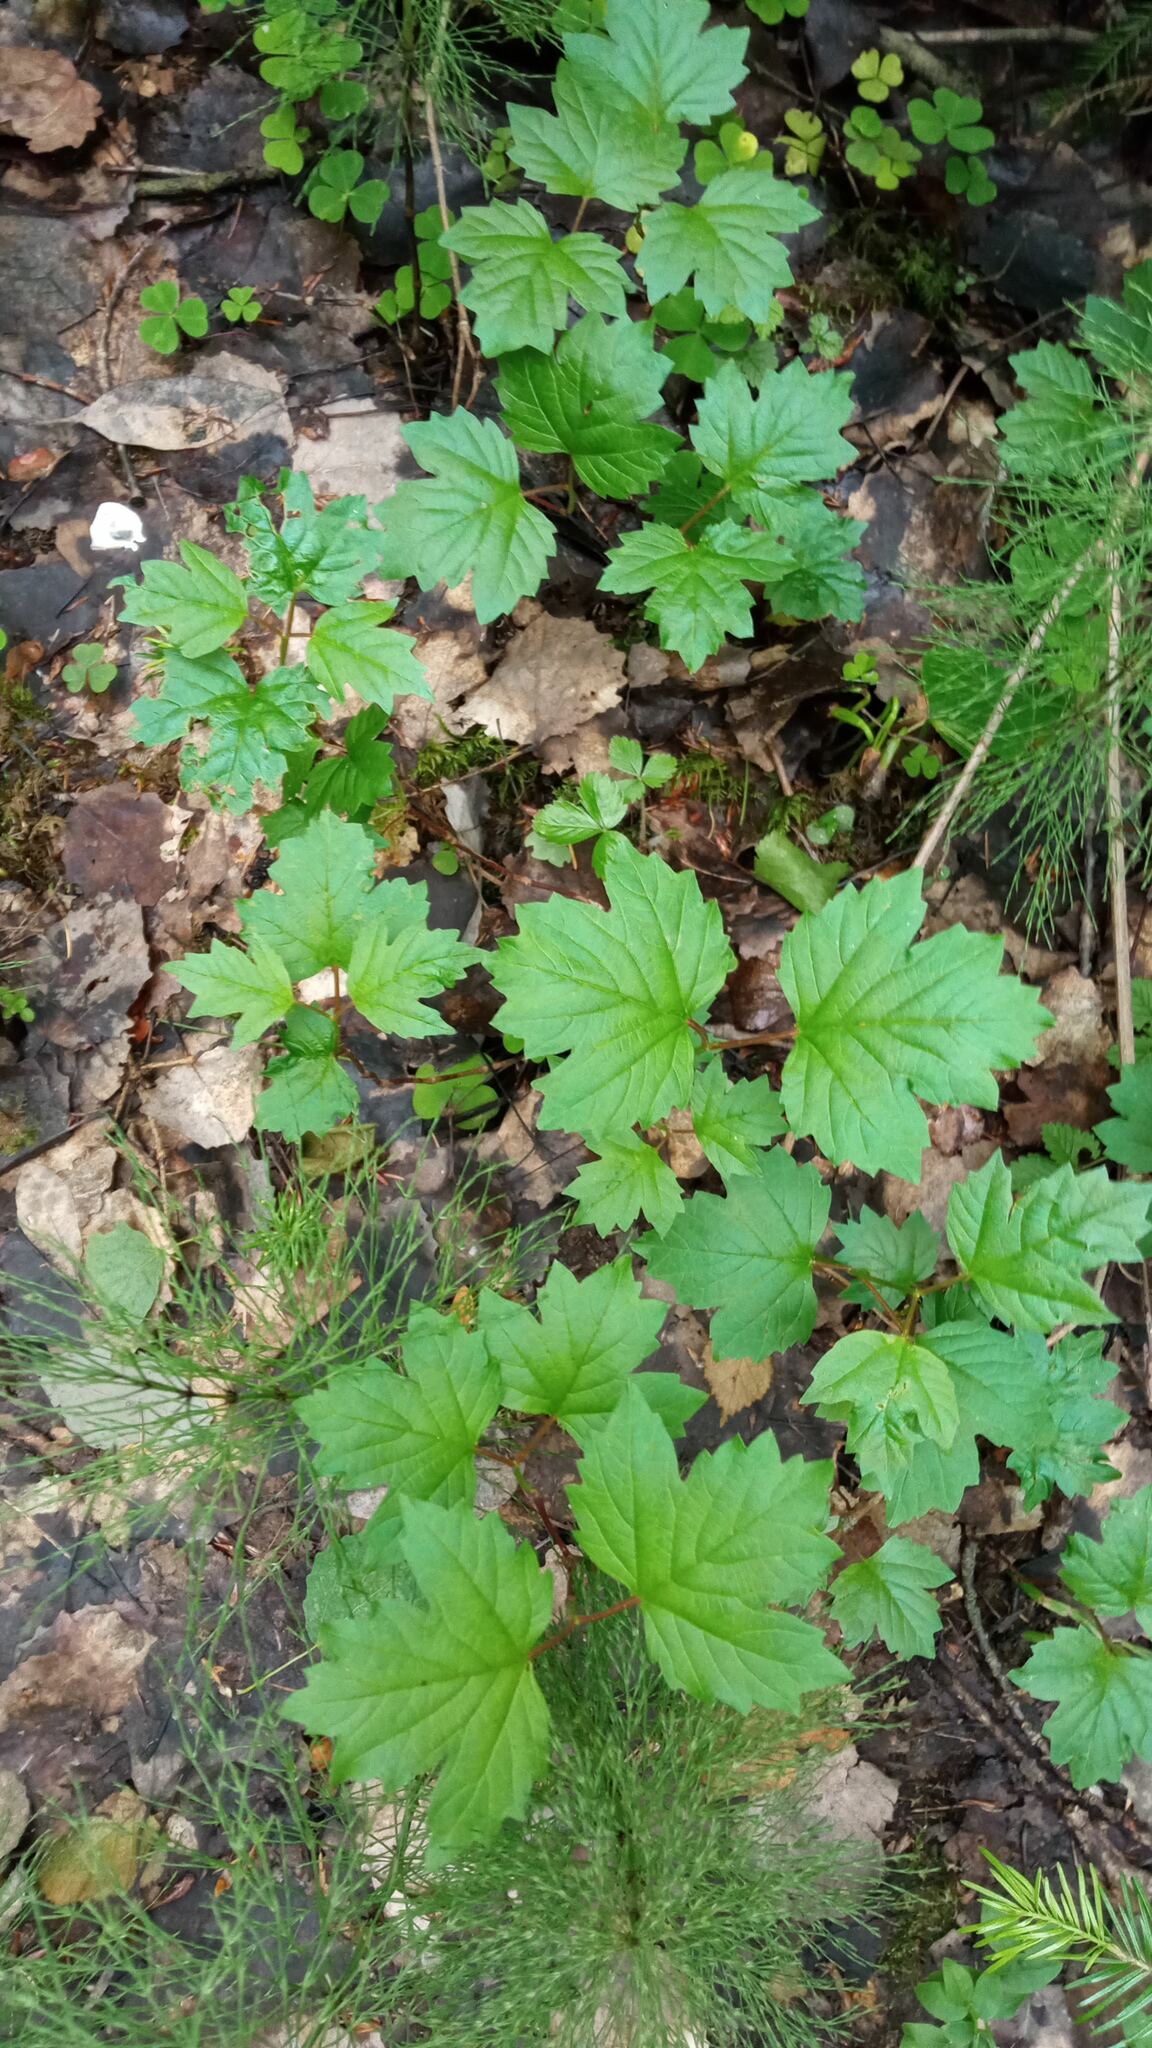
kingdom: Plantae
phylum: Tracheophyta
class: Magnoliopsida
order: Dipsacales
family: Viburnaceae
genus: Viburnum
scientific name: Viburnum opulus
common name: Guelder-rose
